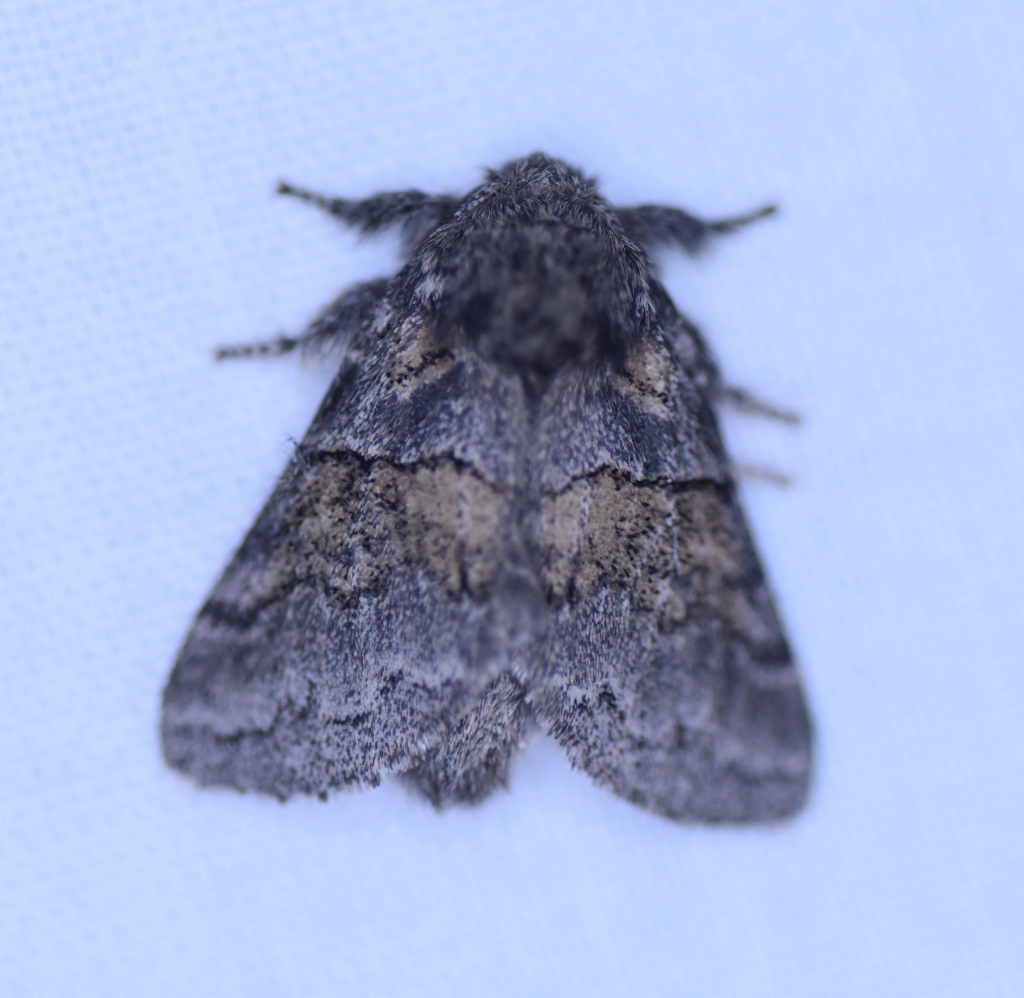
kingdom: Animalia
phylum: Arthropoda
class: Insecta
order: Lepidoptera
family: Notodontidae
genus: Gluphisia
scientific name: Gluphisia septentrionis
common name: Common gluphisia
